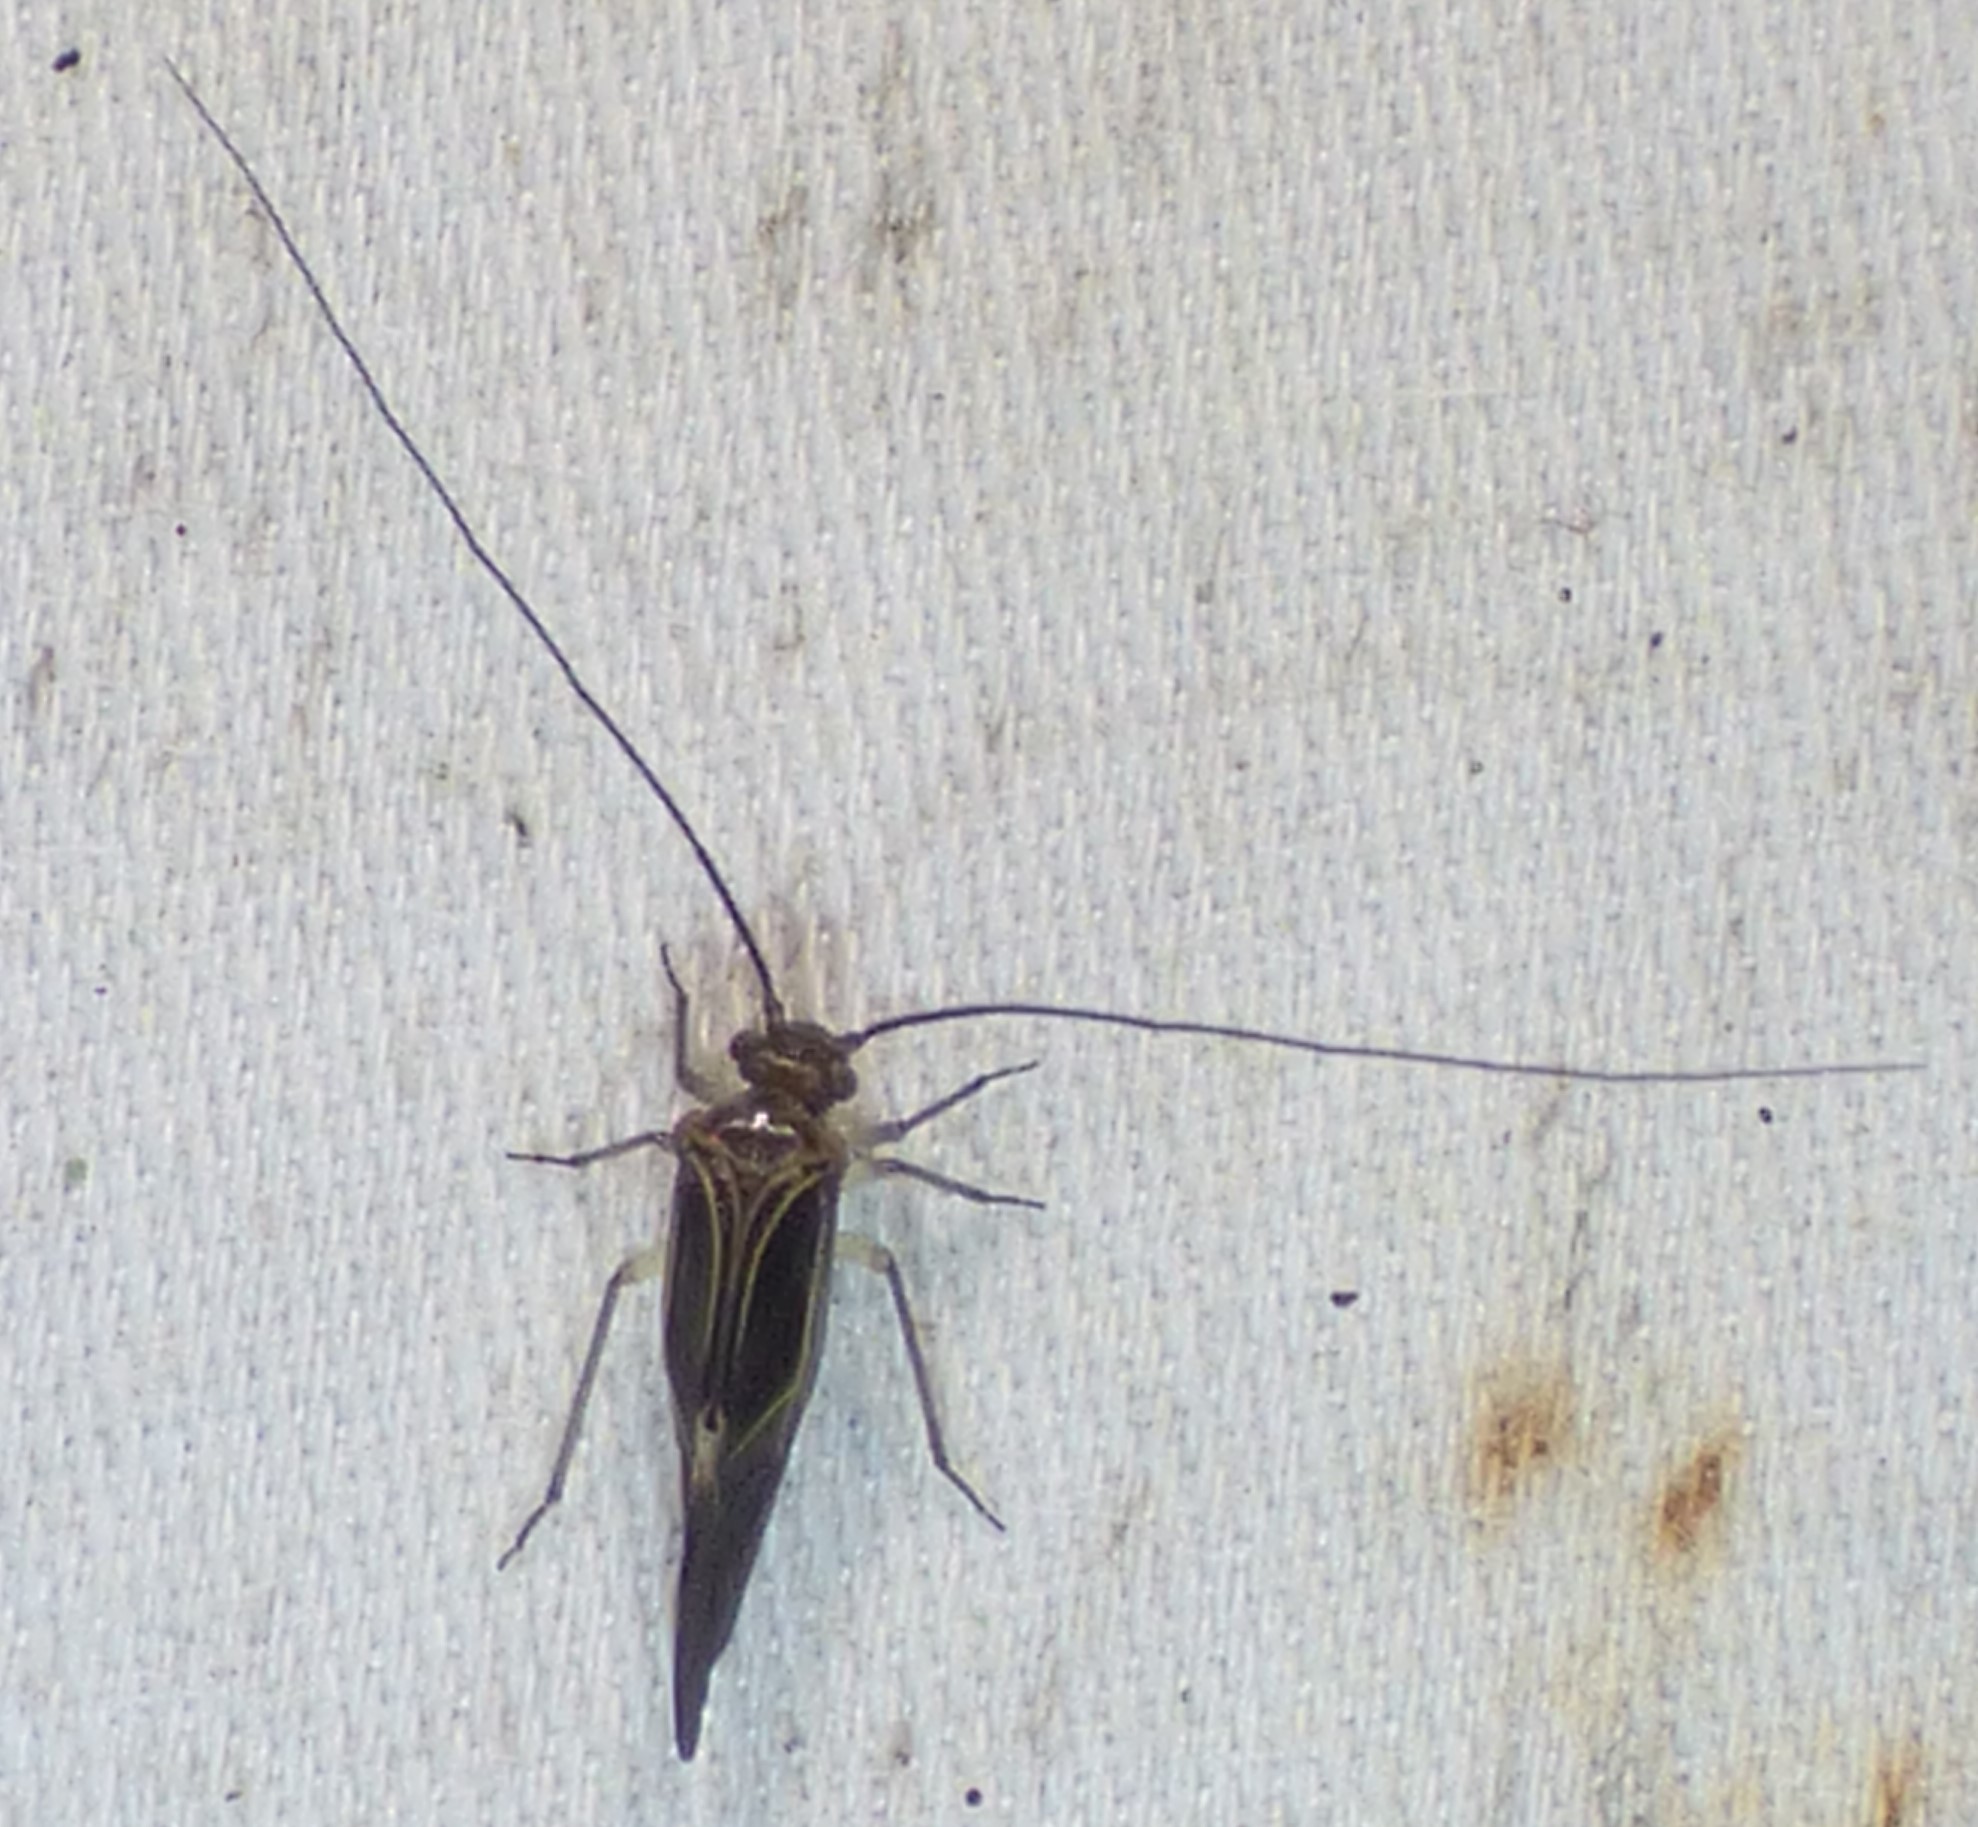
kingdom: Animalia
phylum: Arthropoda
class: Insecta
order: Psocodea
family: Psocidae
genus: Cerastipsocus
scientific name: Cerastipsocus venosus
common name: Tree cattle
